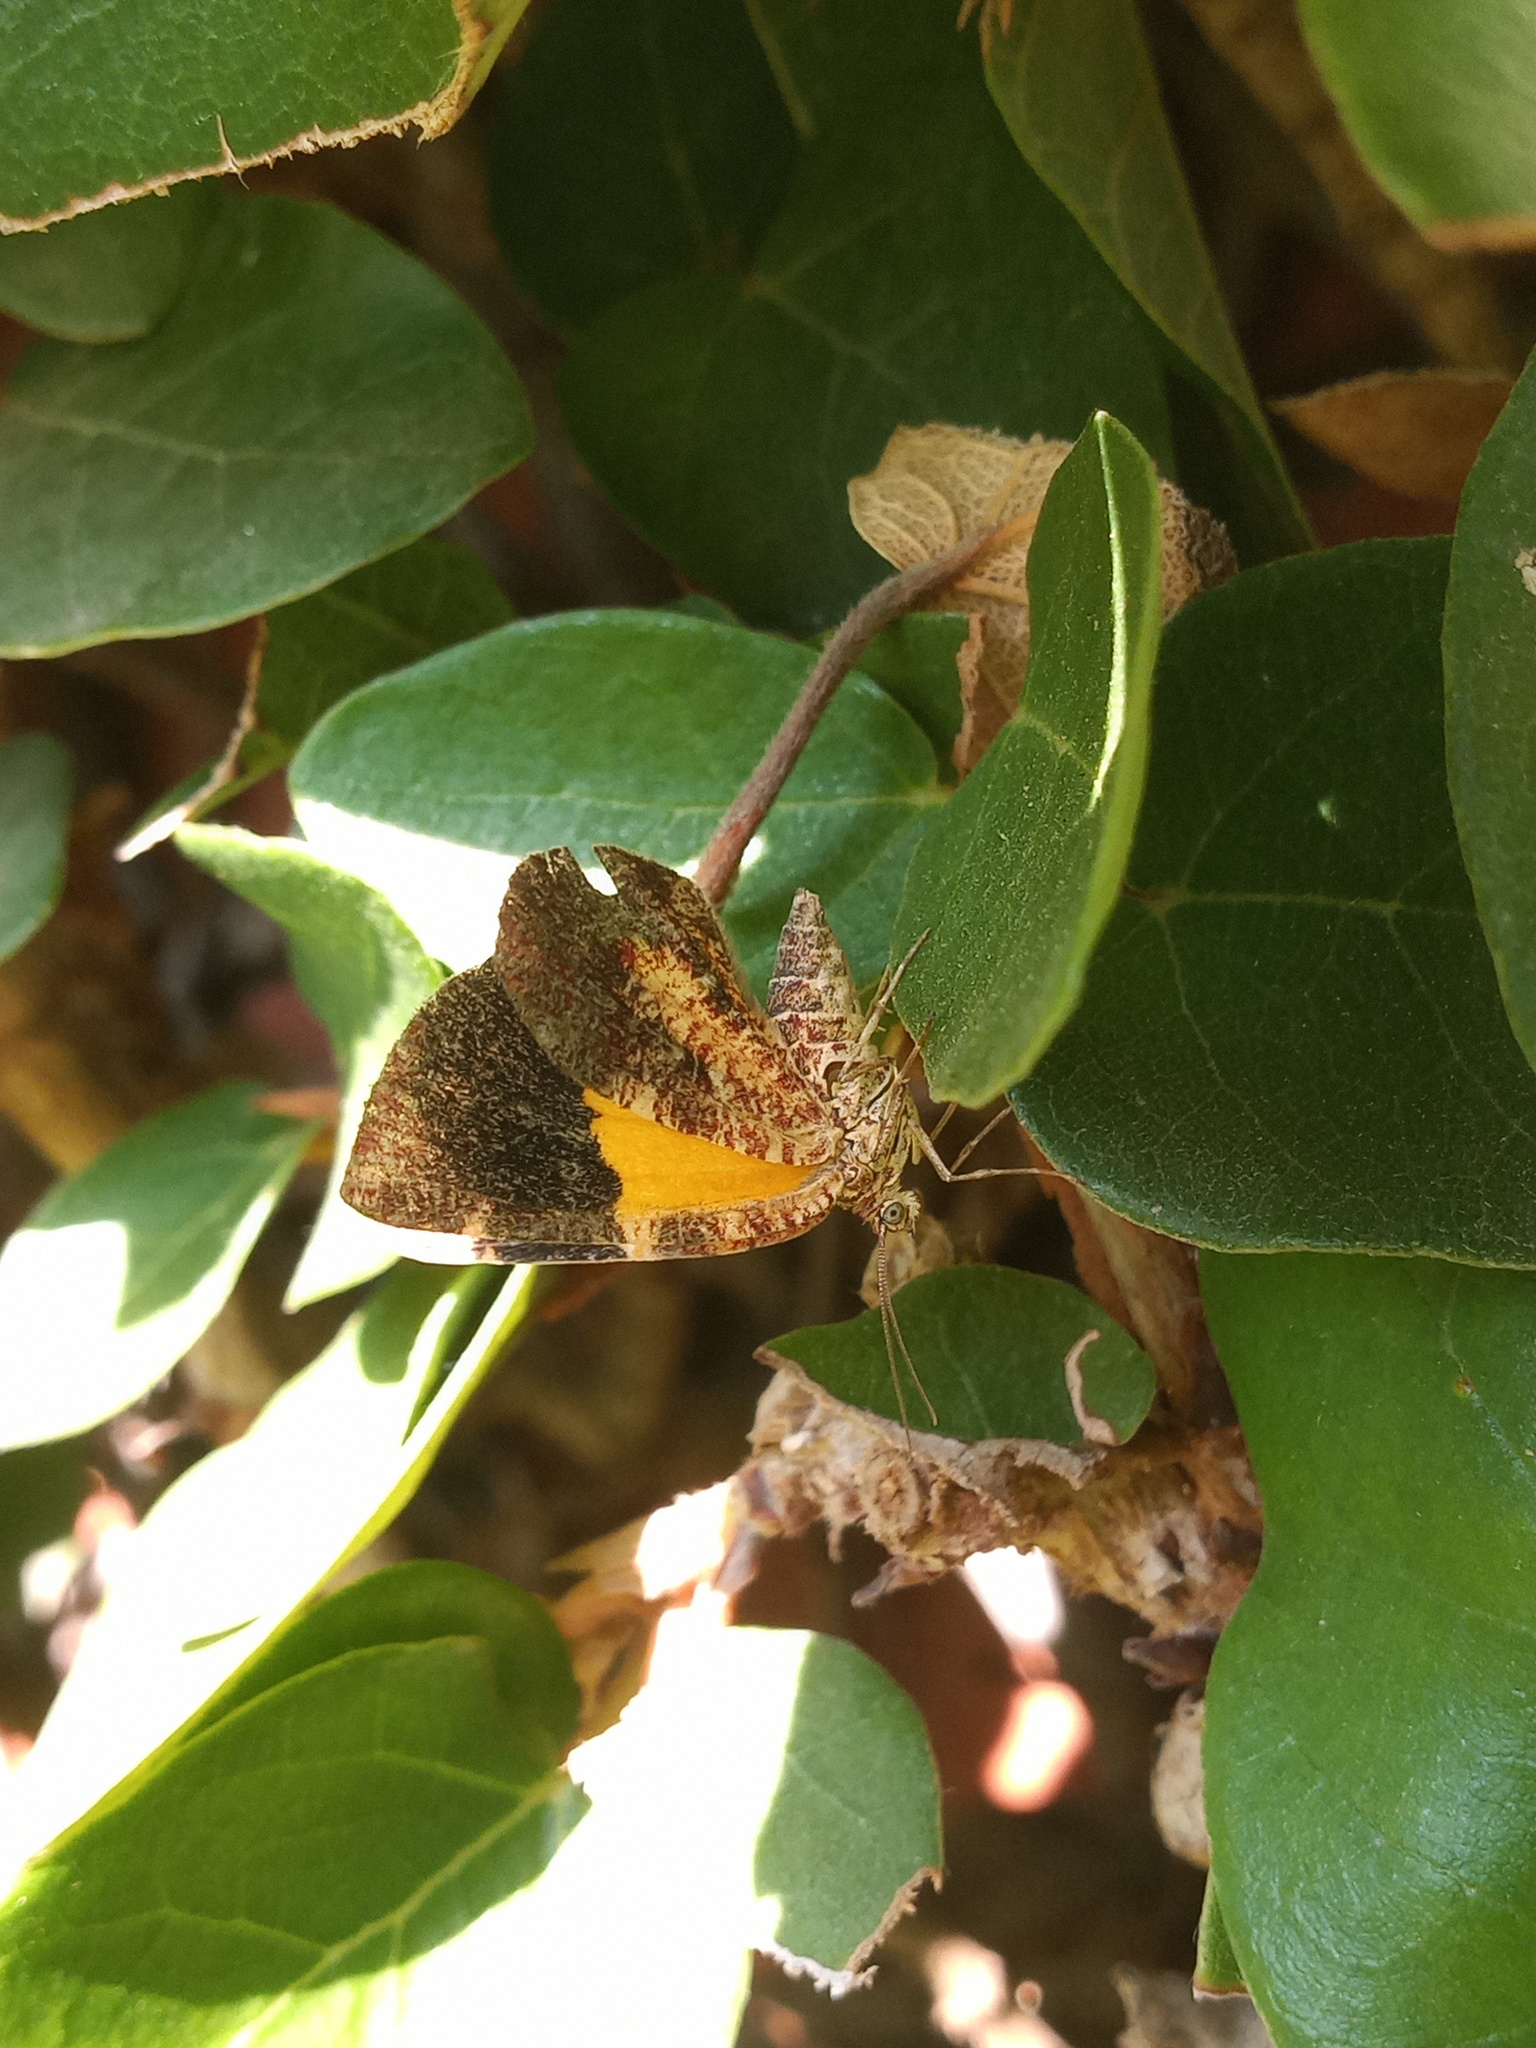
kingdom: Animalia
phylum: Arthropoda
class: Insecta
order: Lepidoptera
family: Geometridae
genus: Heterusia
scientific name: Heterusia atalantata
